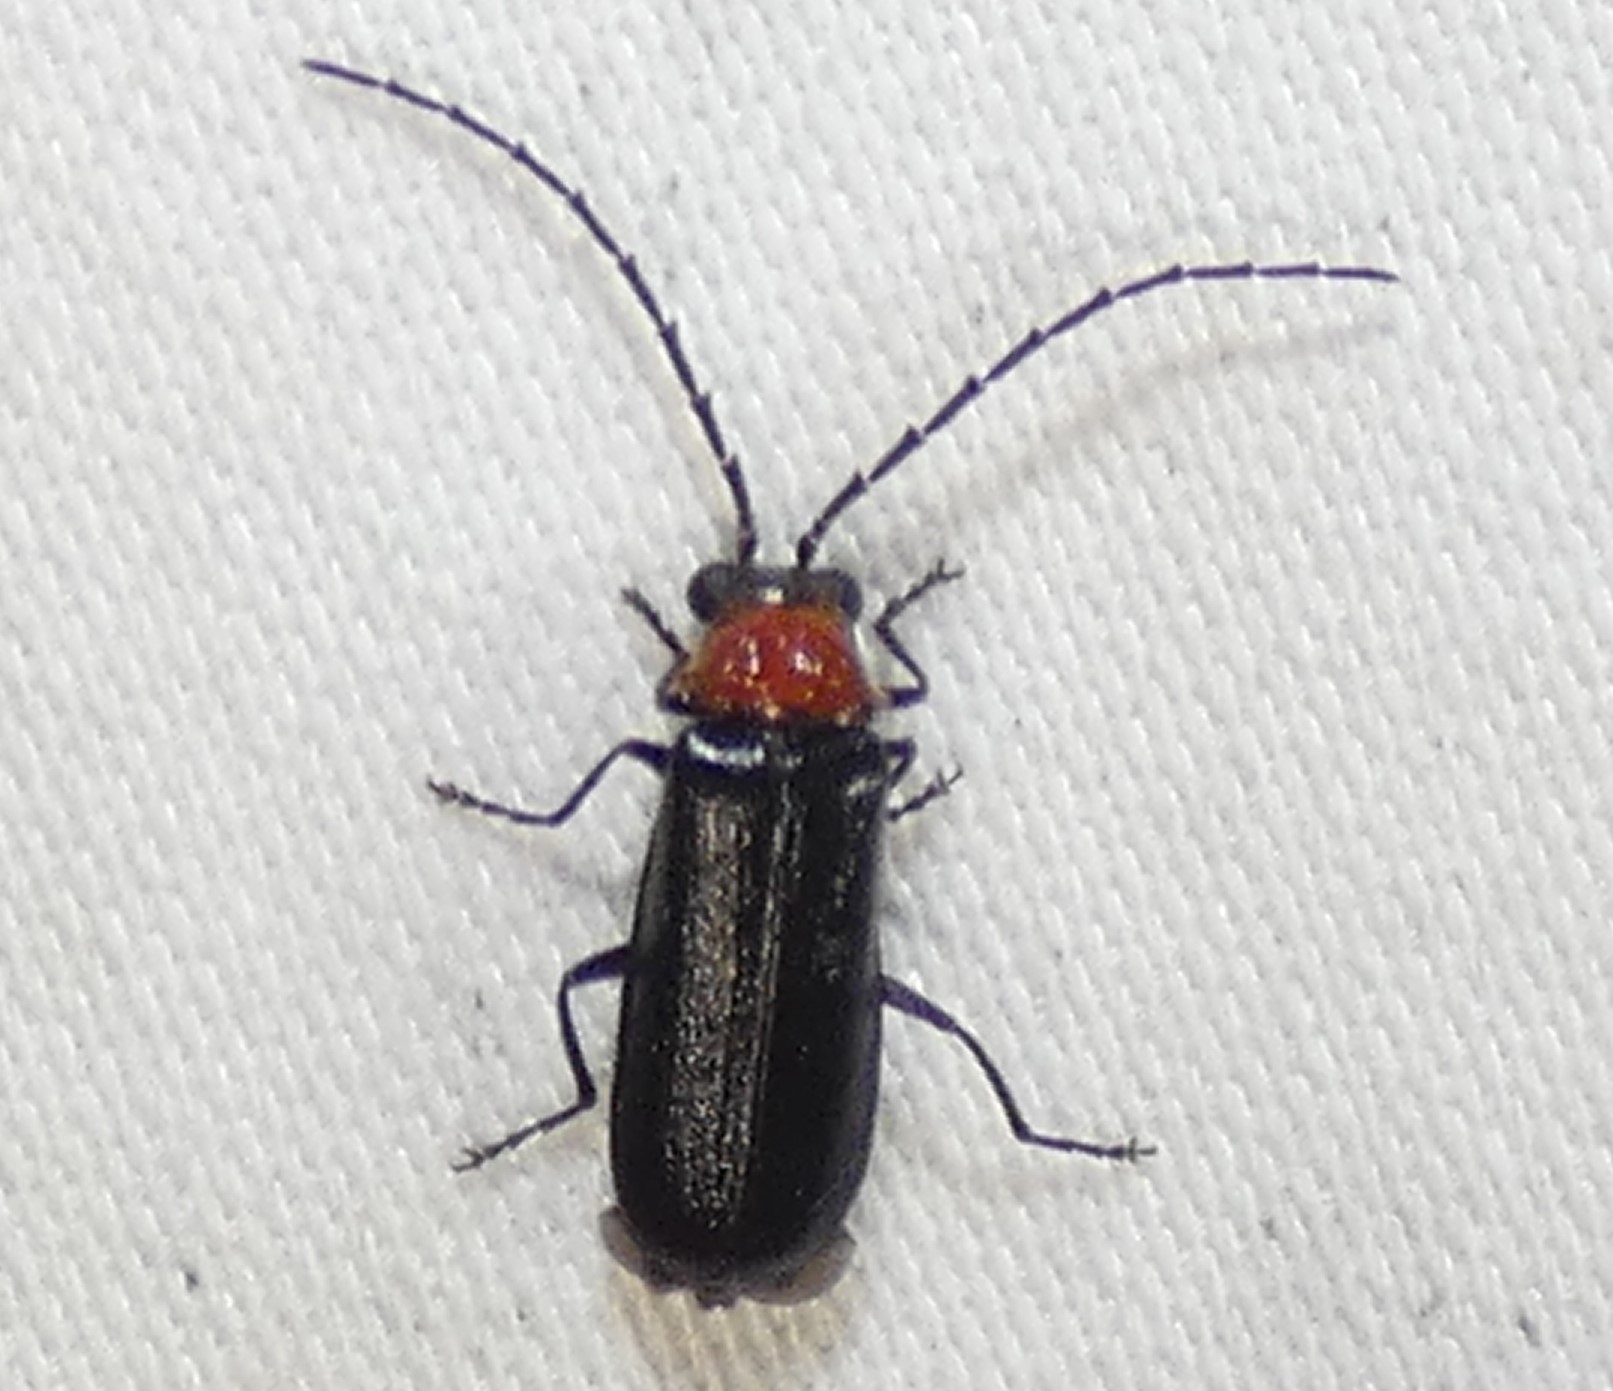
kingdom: Animalia
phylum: Arthropoda
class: Insecta
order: Coleoptera
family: Cantharidae
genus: Silis
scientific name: Silis percomis
